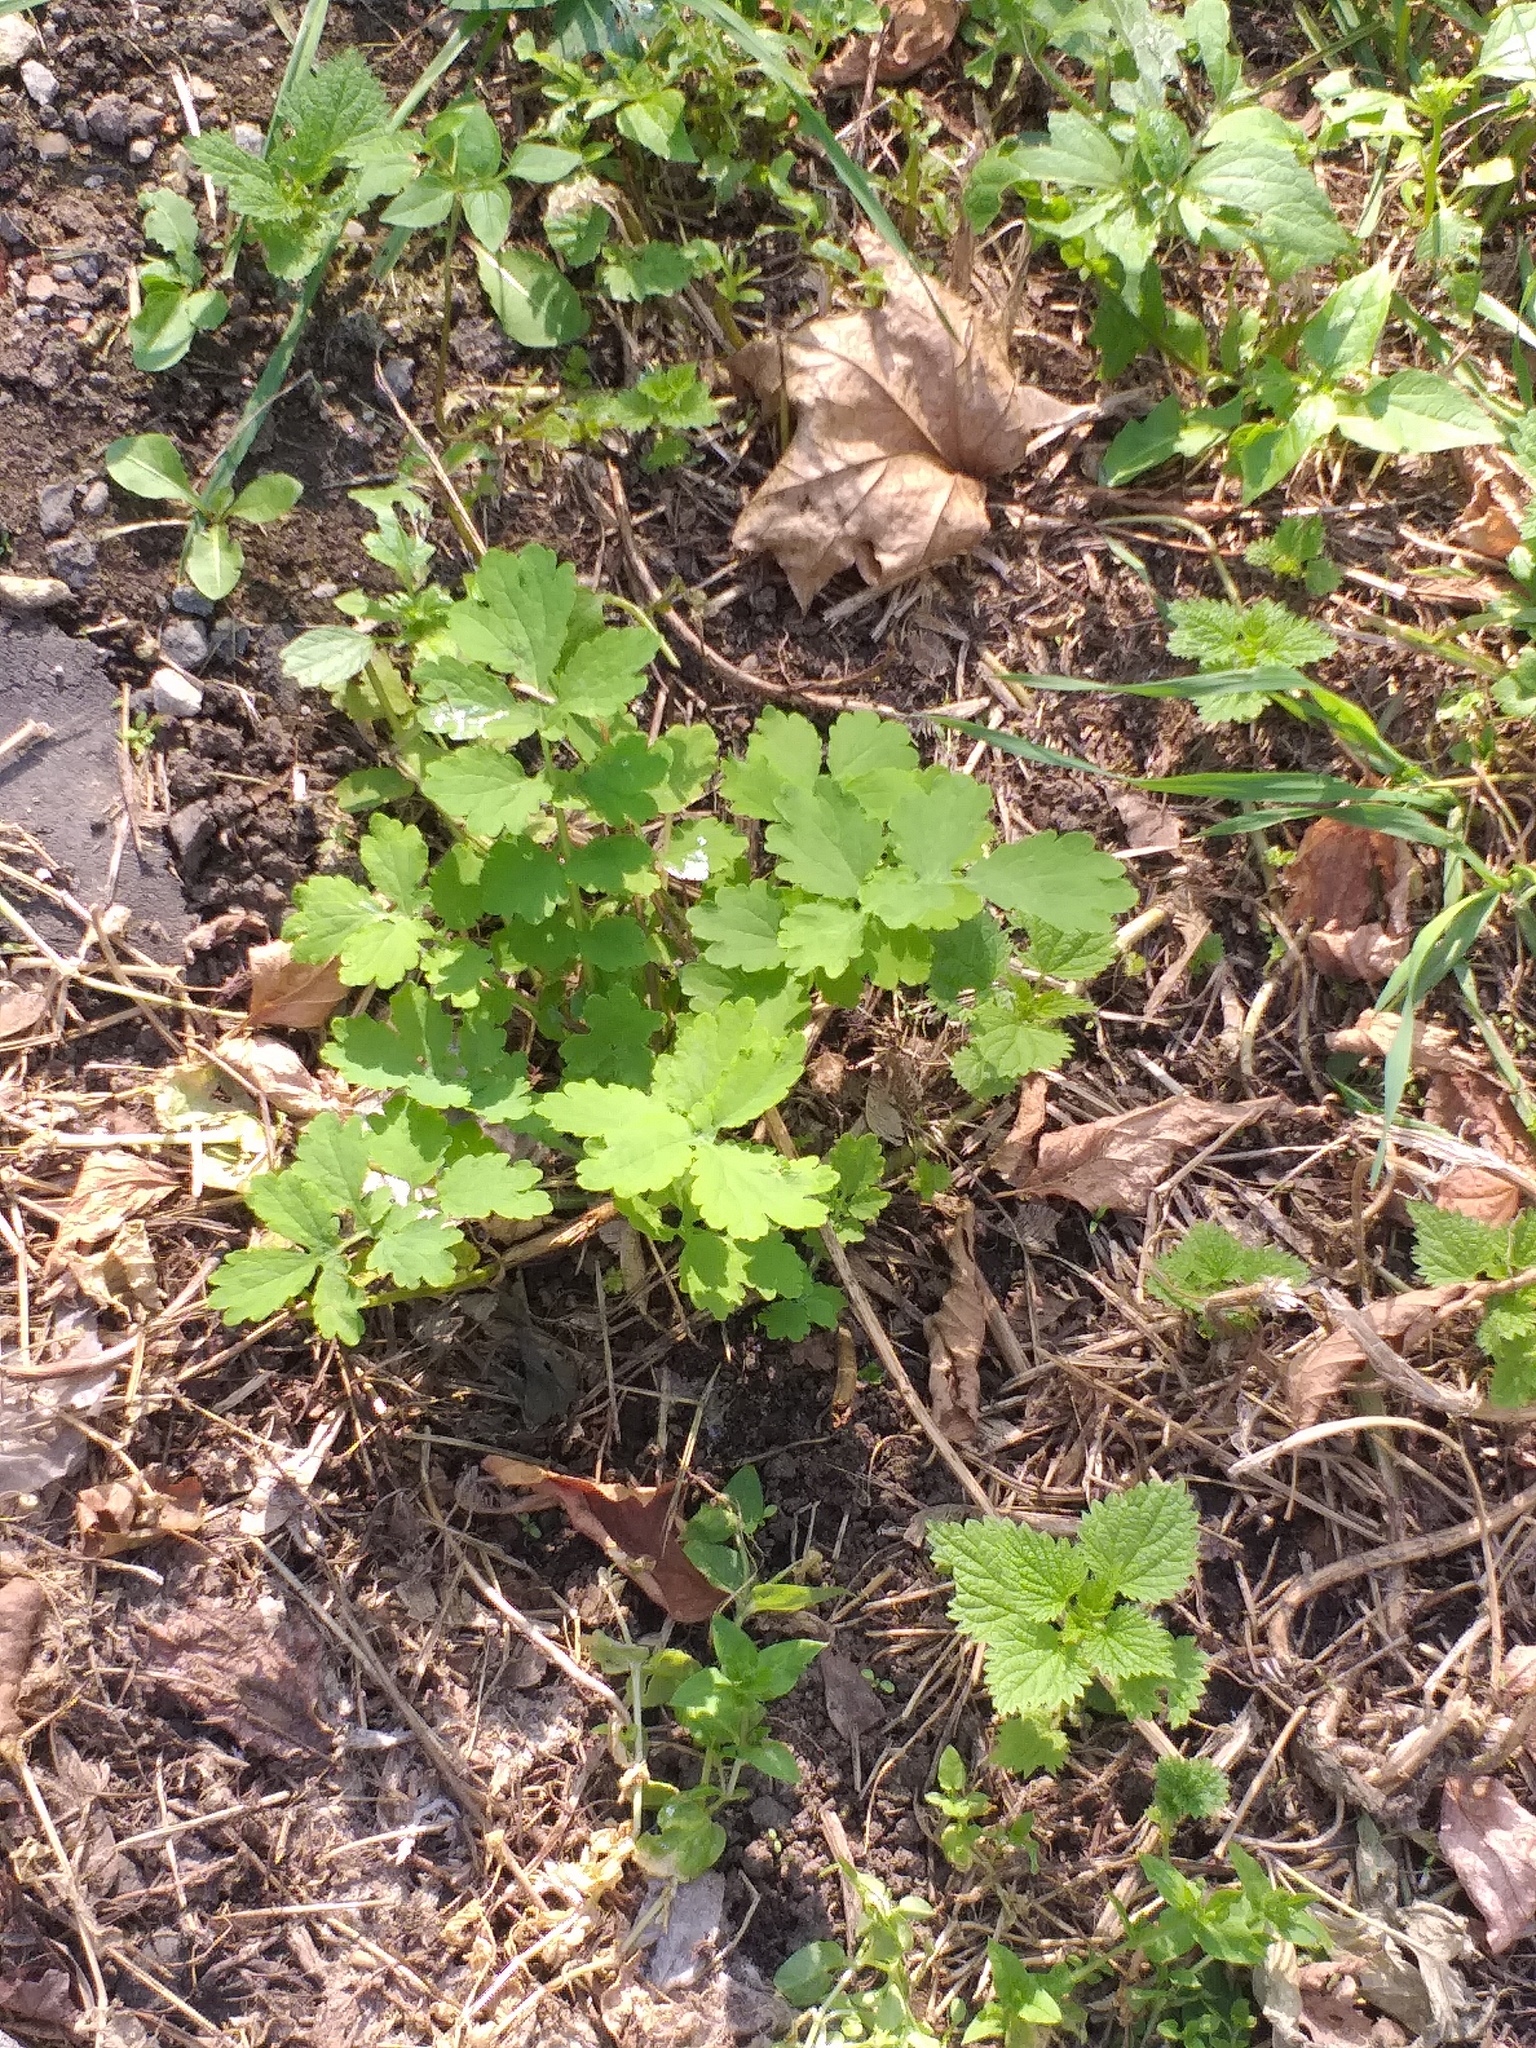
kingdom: Plantae
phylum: Tracheophyta
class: Magnoliopsida
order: Ranunculales
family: Papaveraceae
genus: Chelidonium
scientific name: Chelidonium majus
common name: Greater celandine
